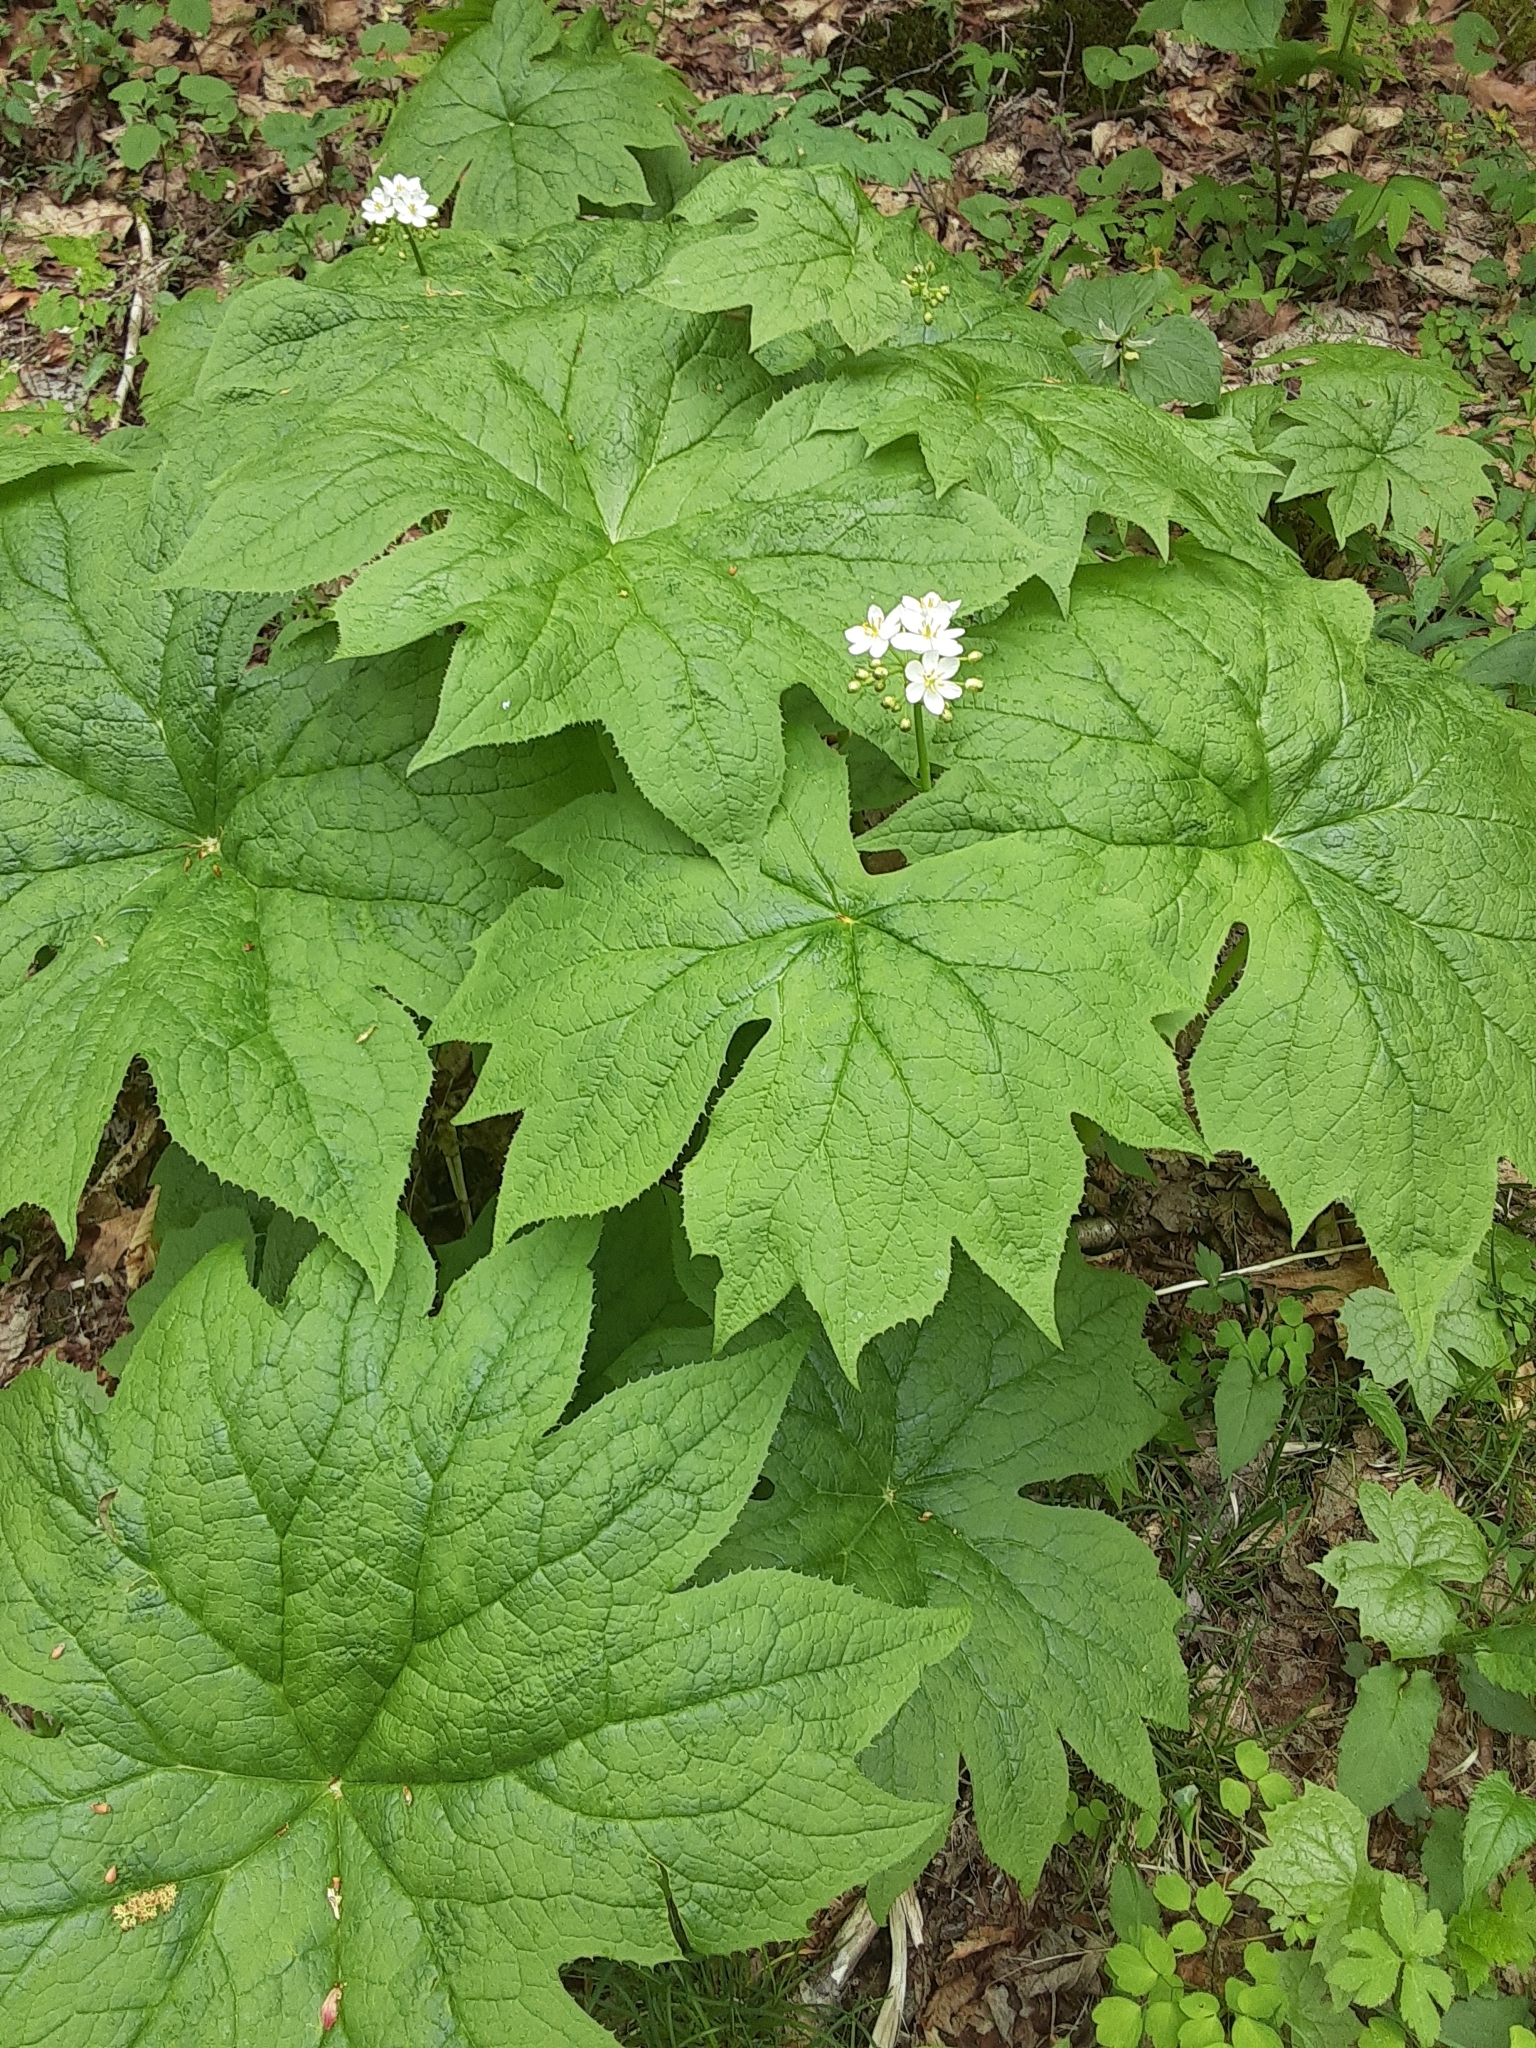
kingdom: Plantae
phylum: Tracheophyta
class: Magnoliopsida
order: Ranunculales
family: Berberidaceae
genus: Diphylleia
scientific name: Diphylleia cymosa
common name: Umbrella-leaf
